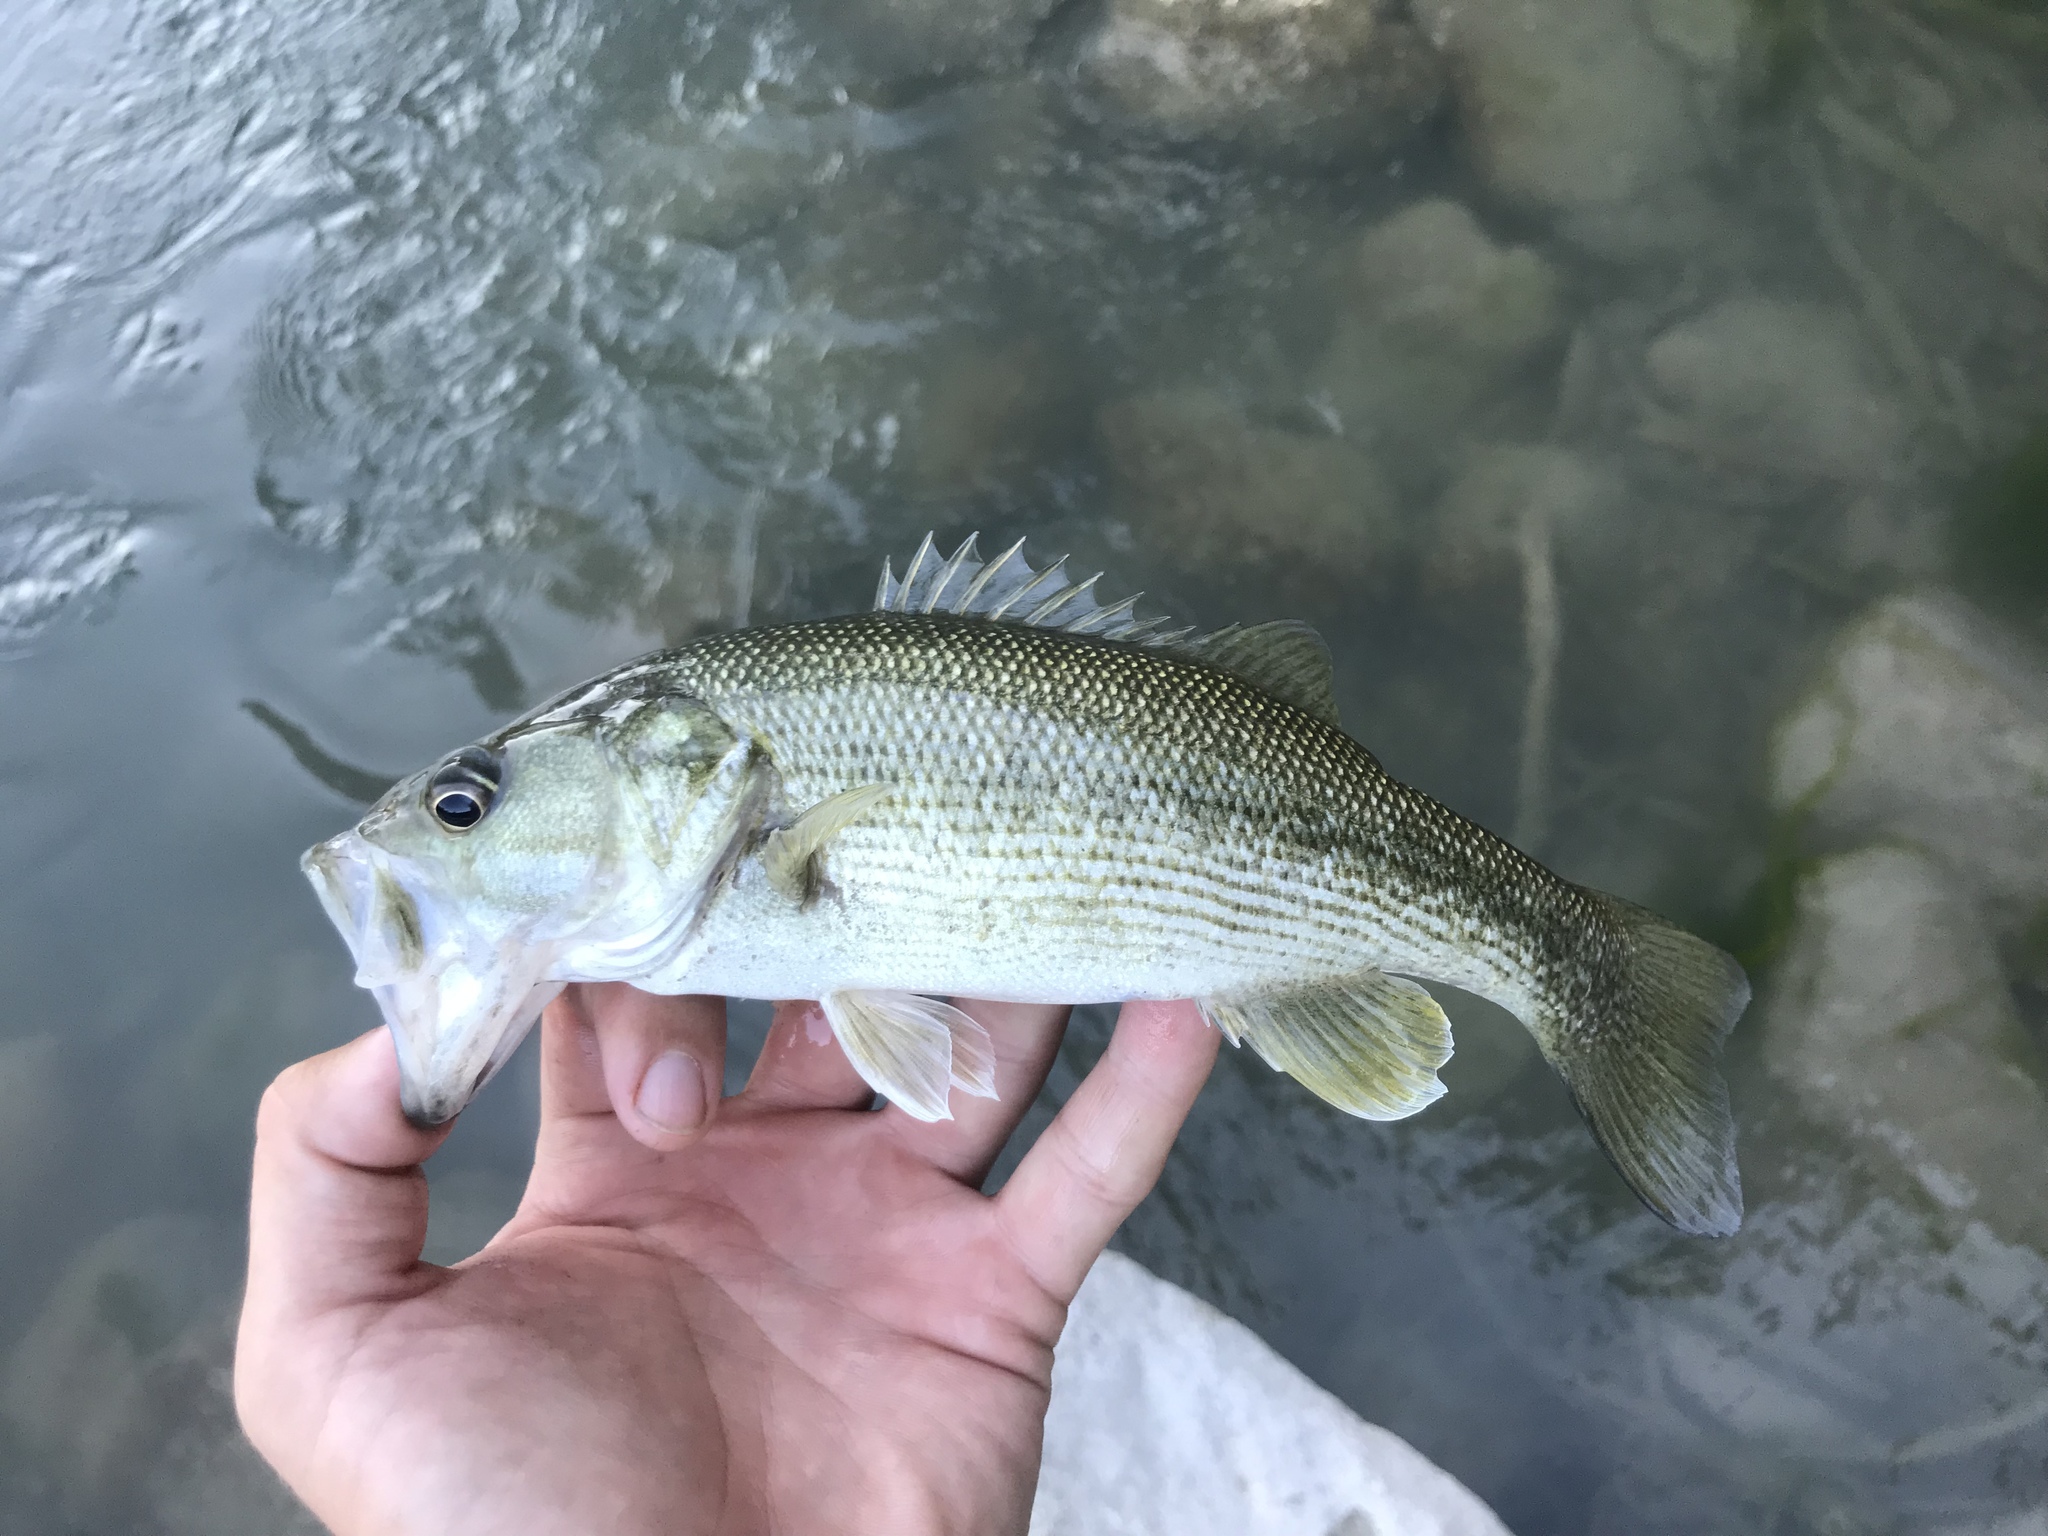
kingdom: Animalia
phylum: Chordata
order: Perciformes
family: Centrarchidae
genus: Micropterus
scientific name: Micropterus treculii
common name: Guadalupe bass
